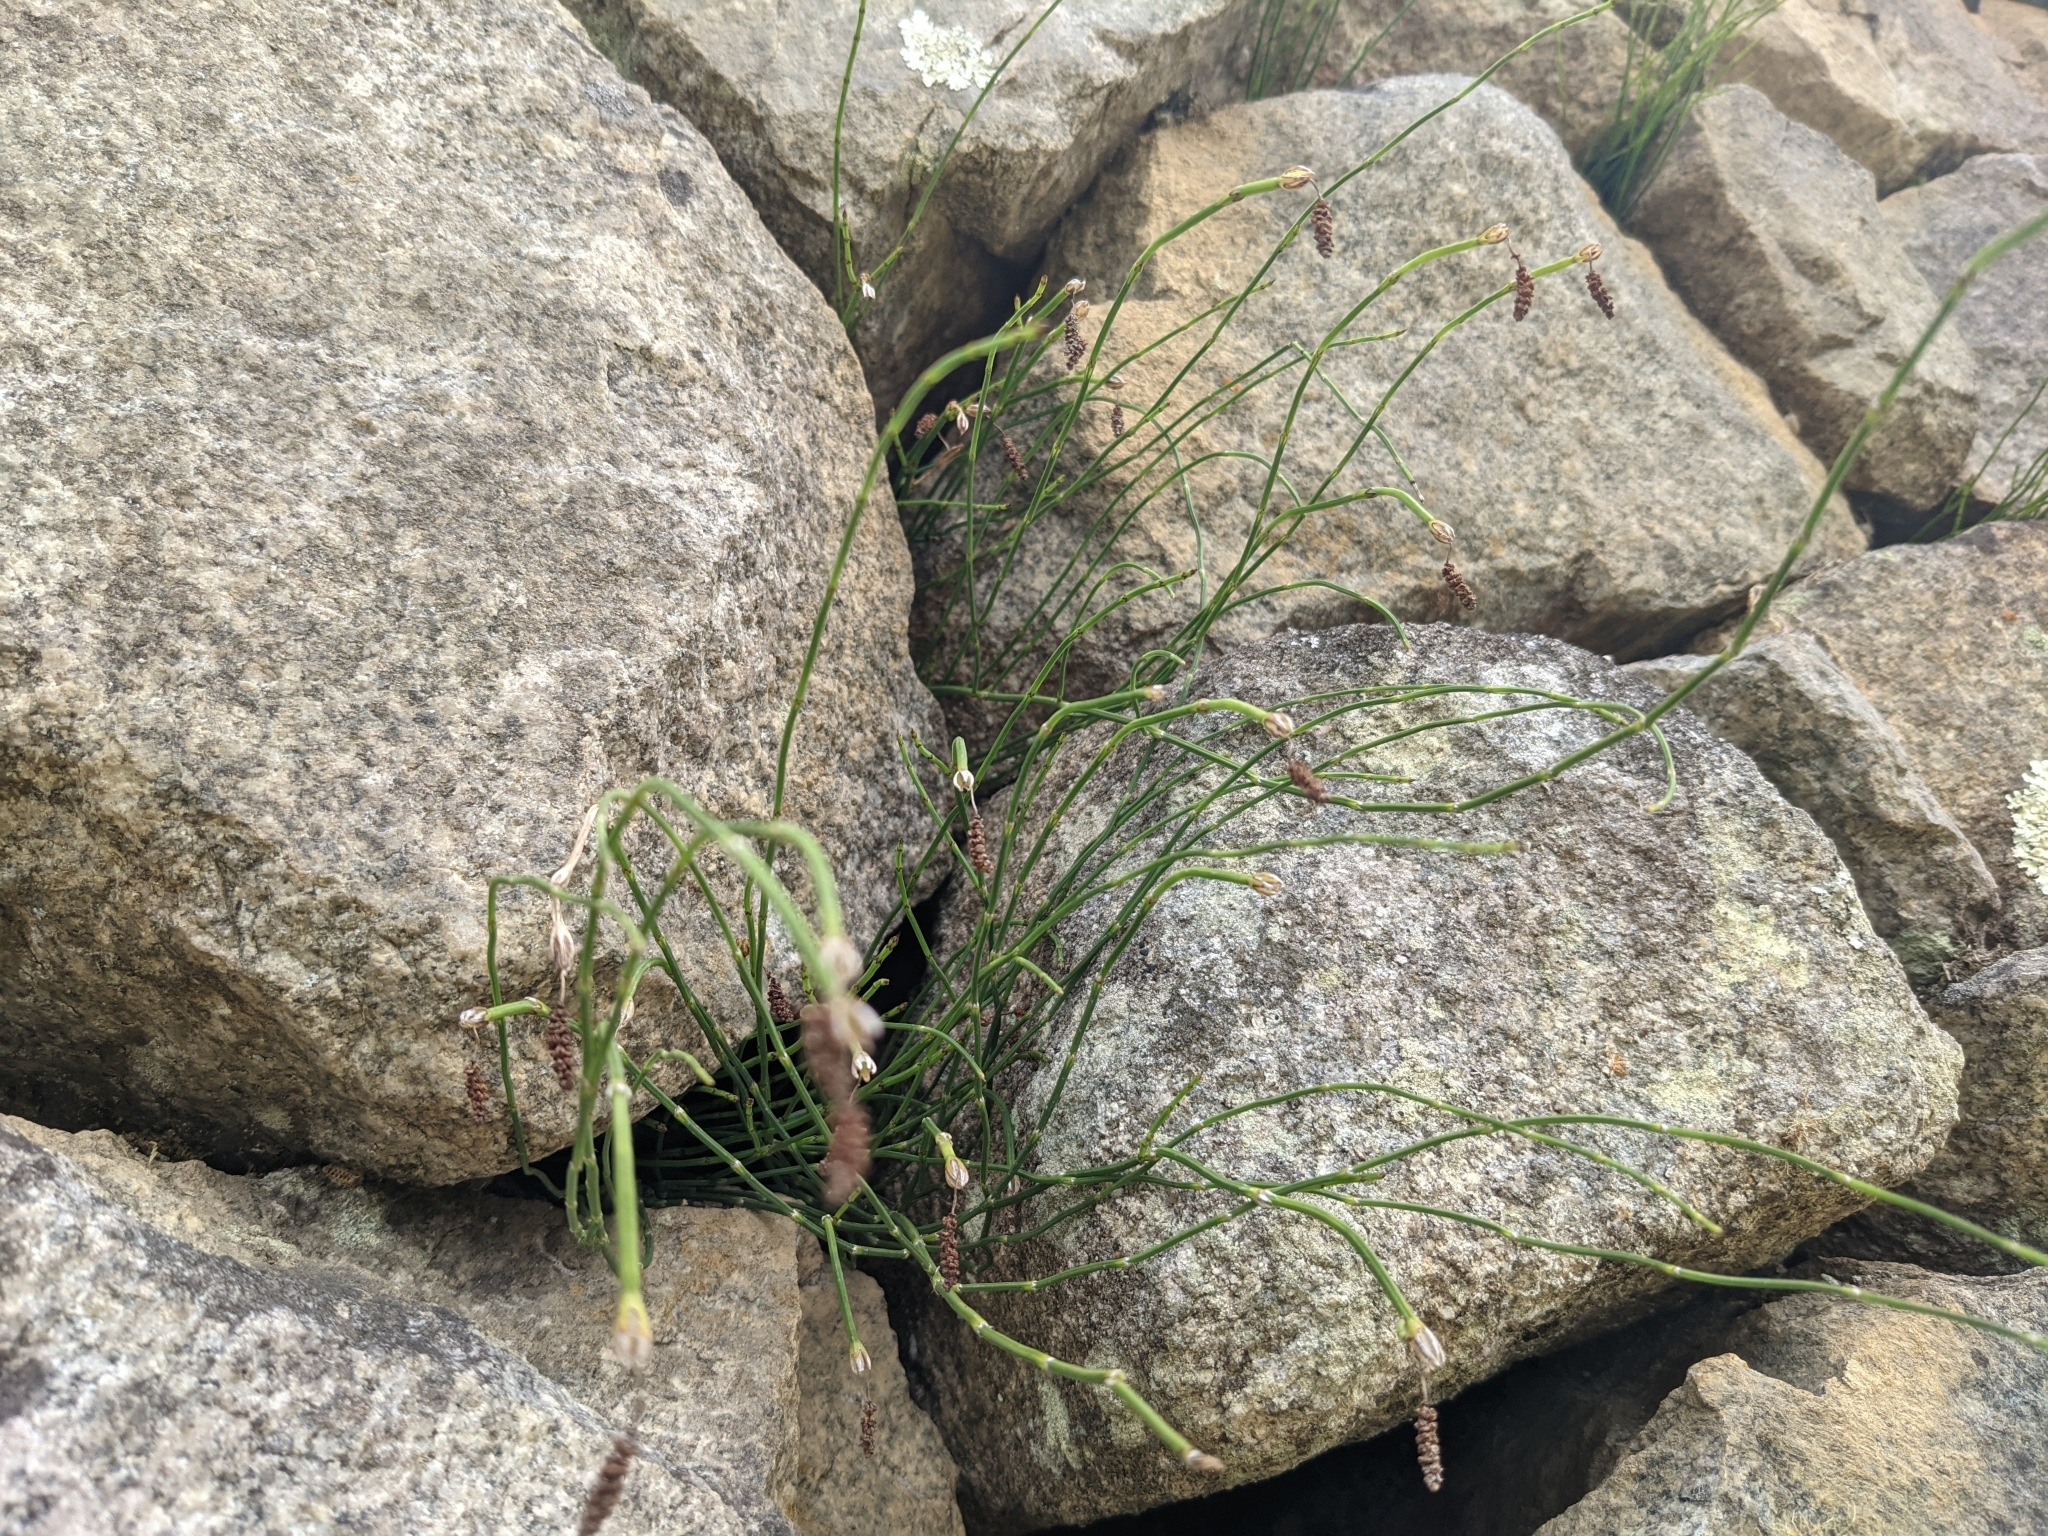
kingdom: Plantae
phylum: Tracheophyta
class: Polypodiopsida
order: Equisetales
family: Equisetaceae
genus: Equisetum
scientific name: Equisetum bogotense
